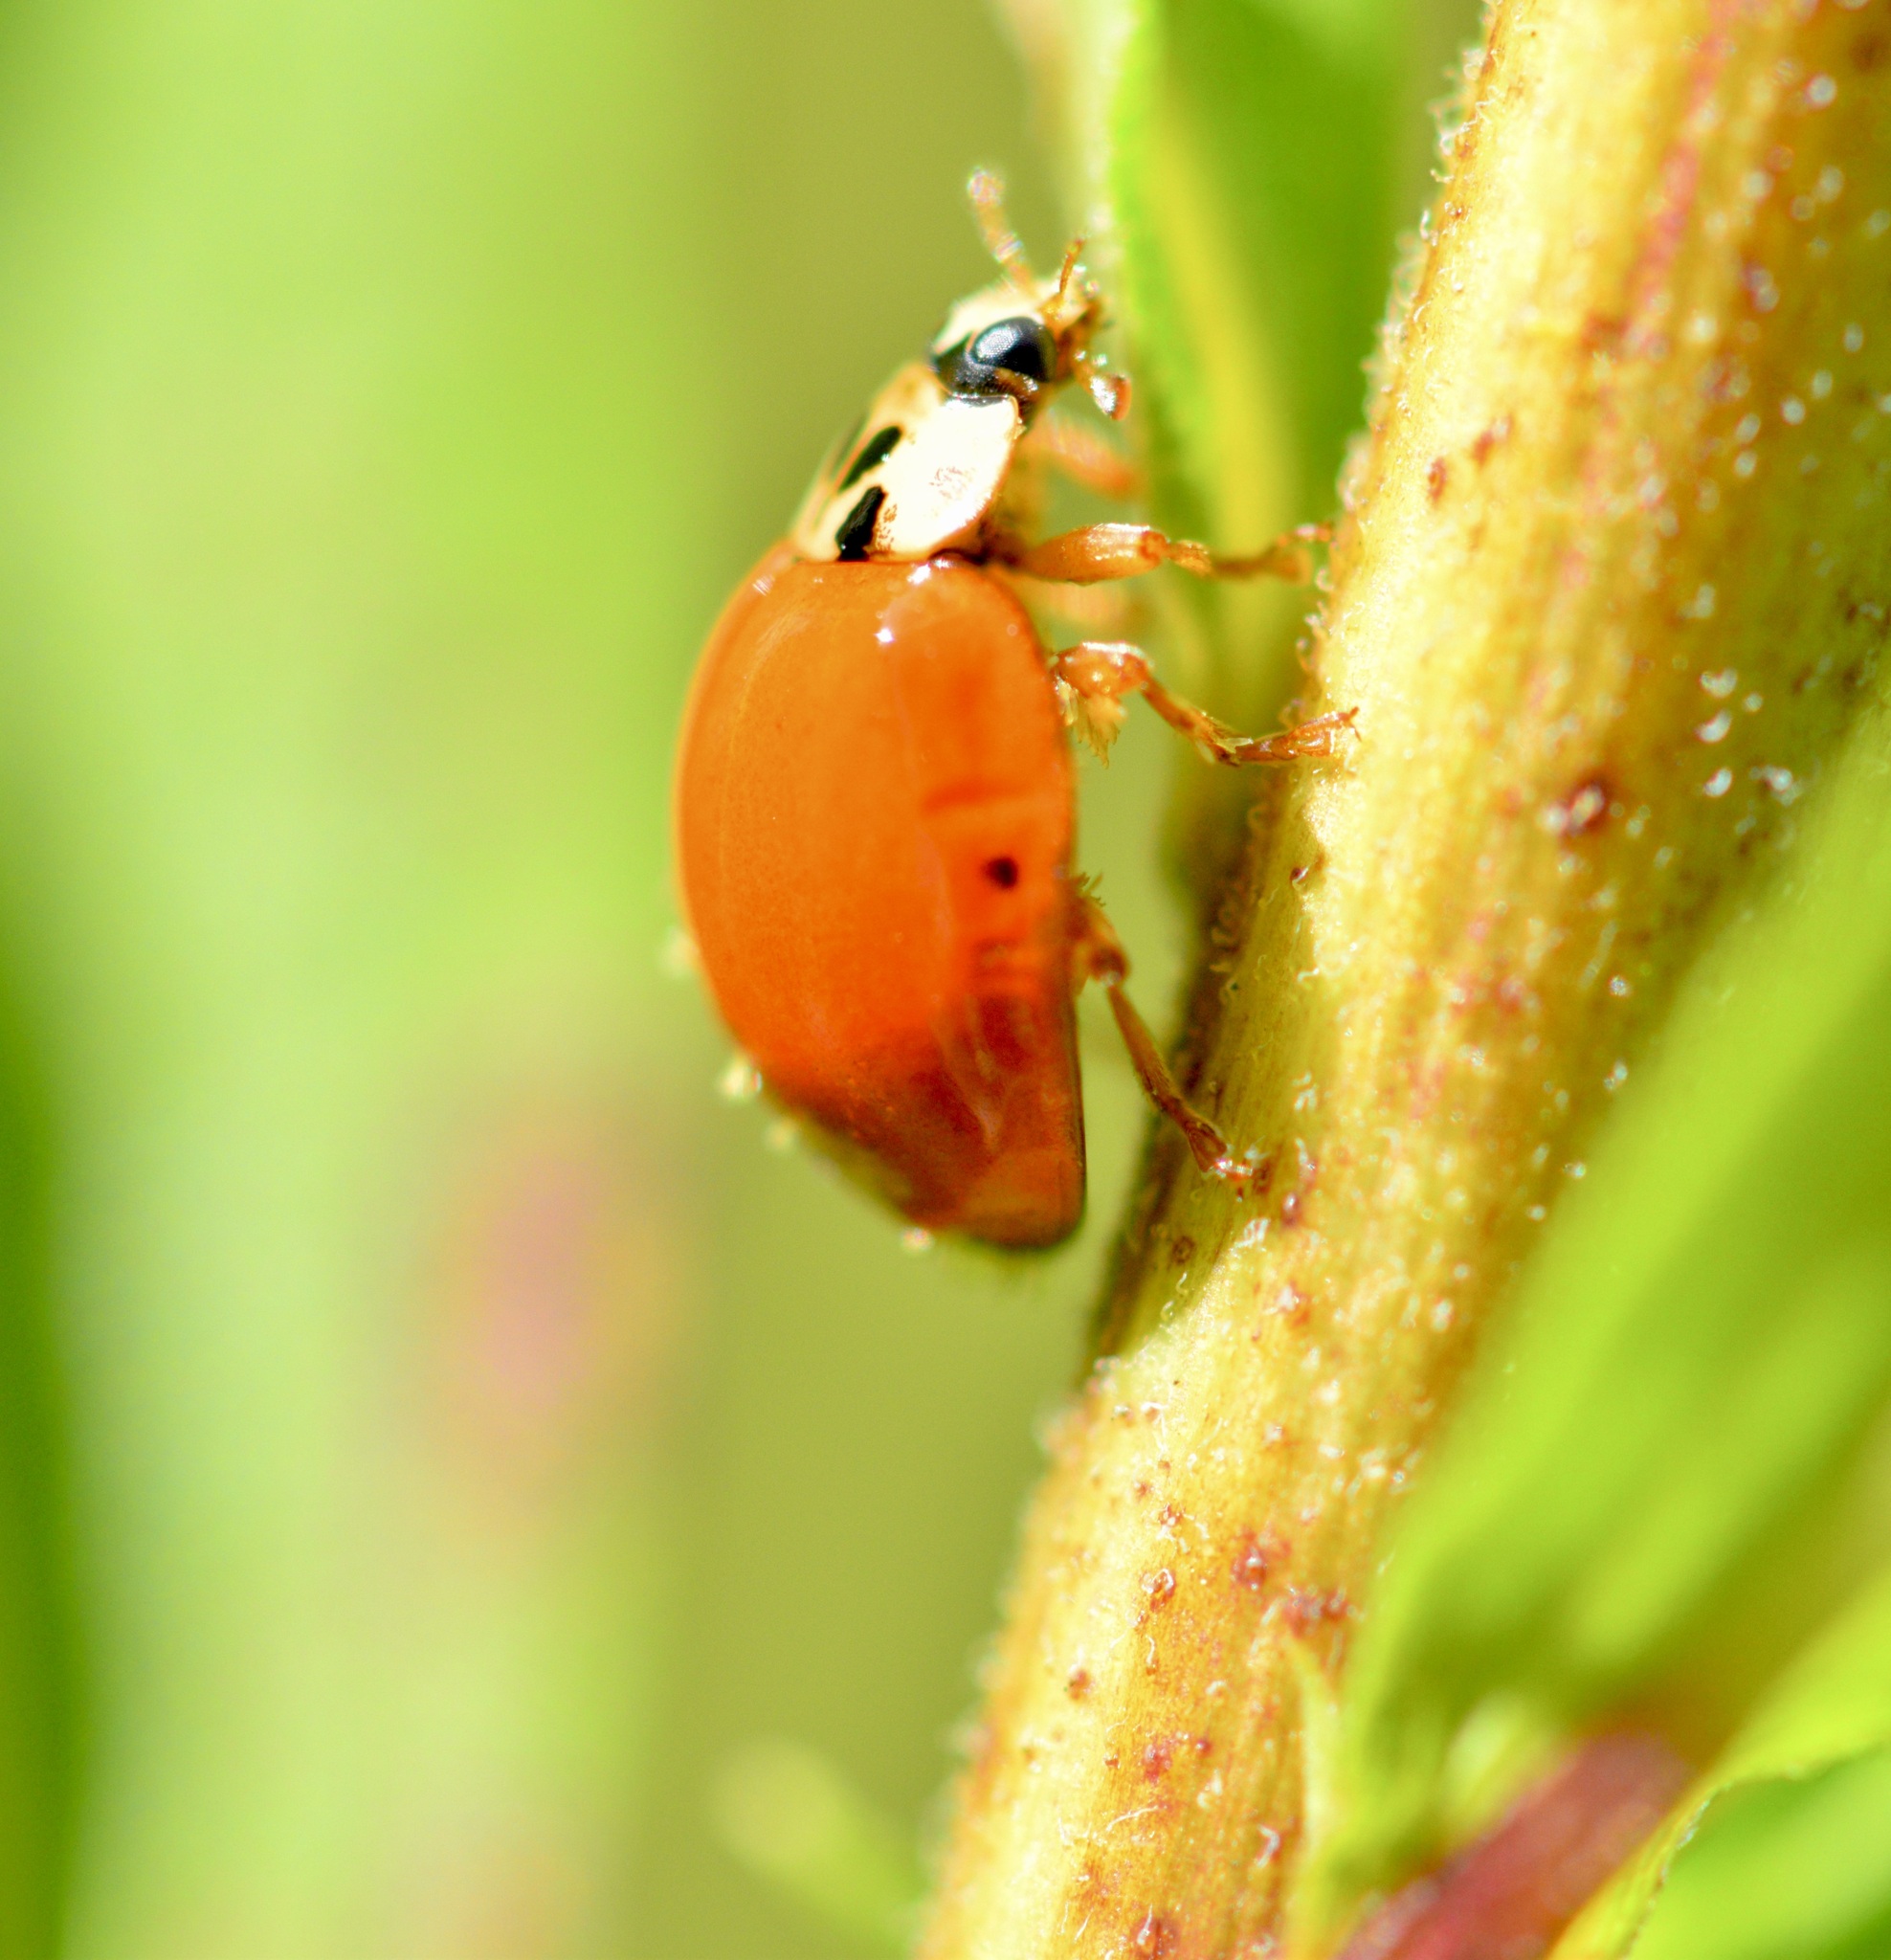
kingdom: Animalia
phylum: Arthropoda
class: Insecta
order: Coleoptera
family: Coccinellidae
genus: Harmonia
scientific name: Harmonia axyridis
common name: Harlequin ladybird
